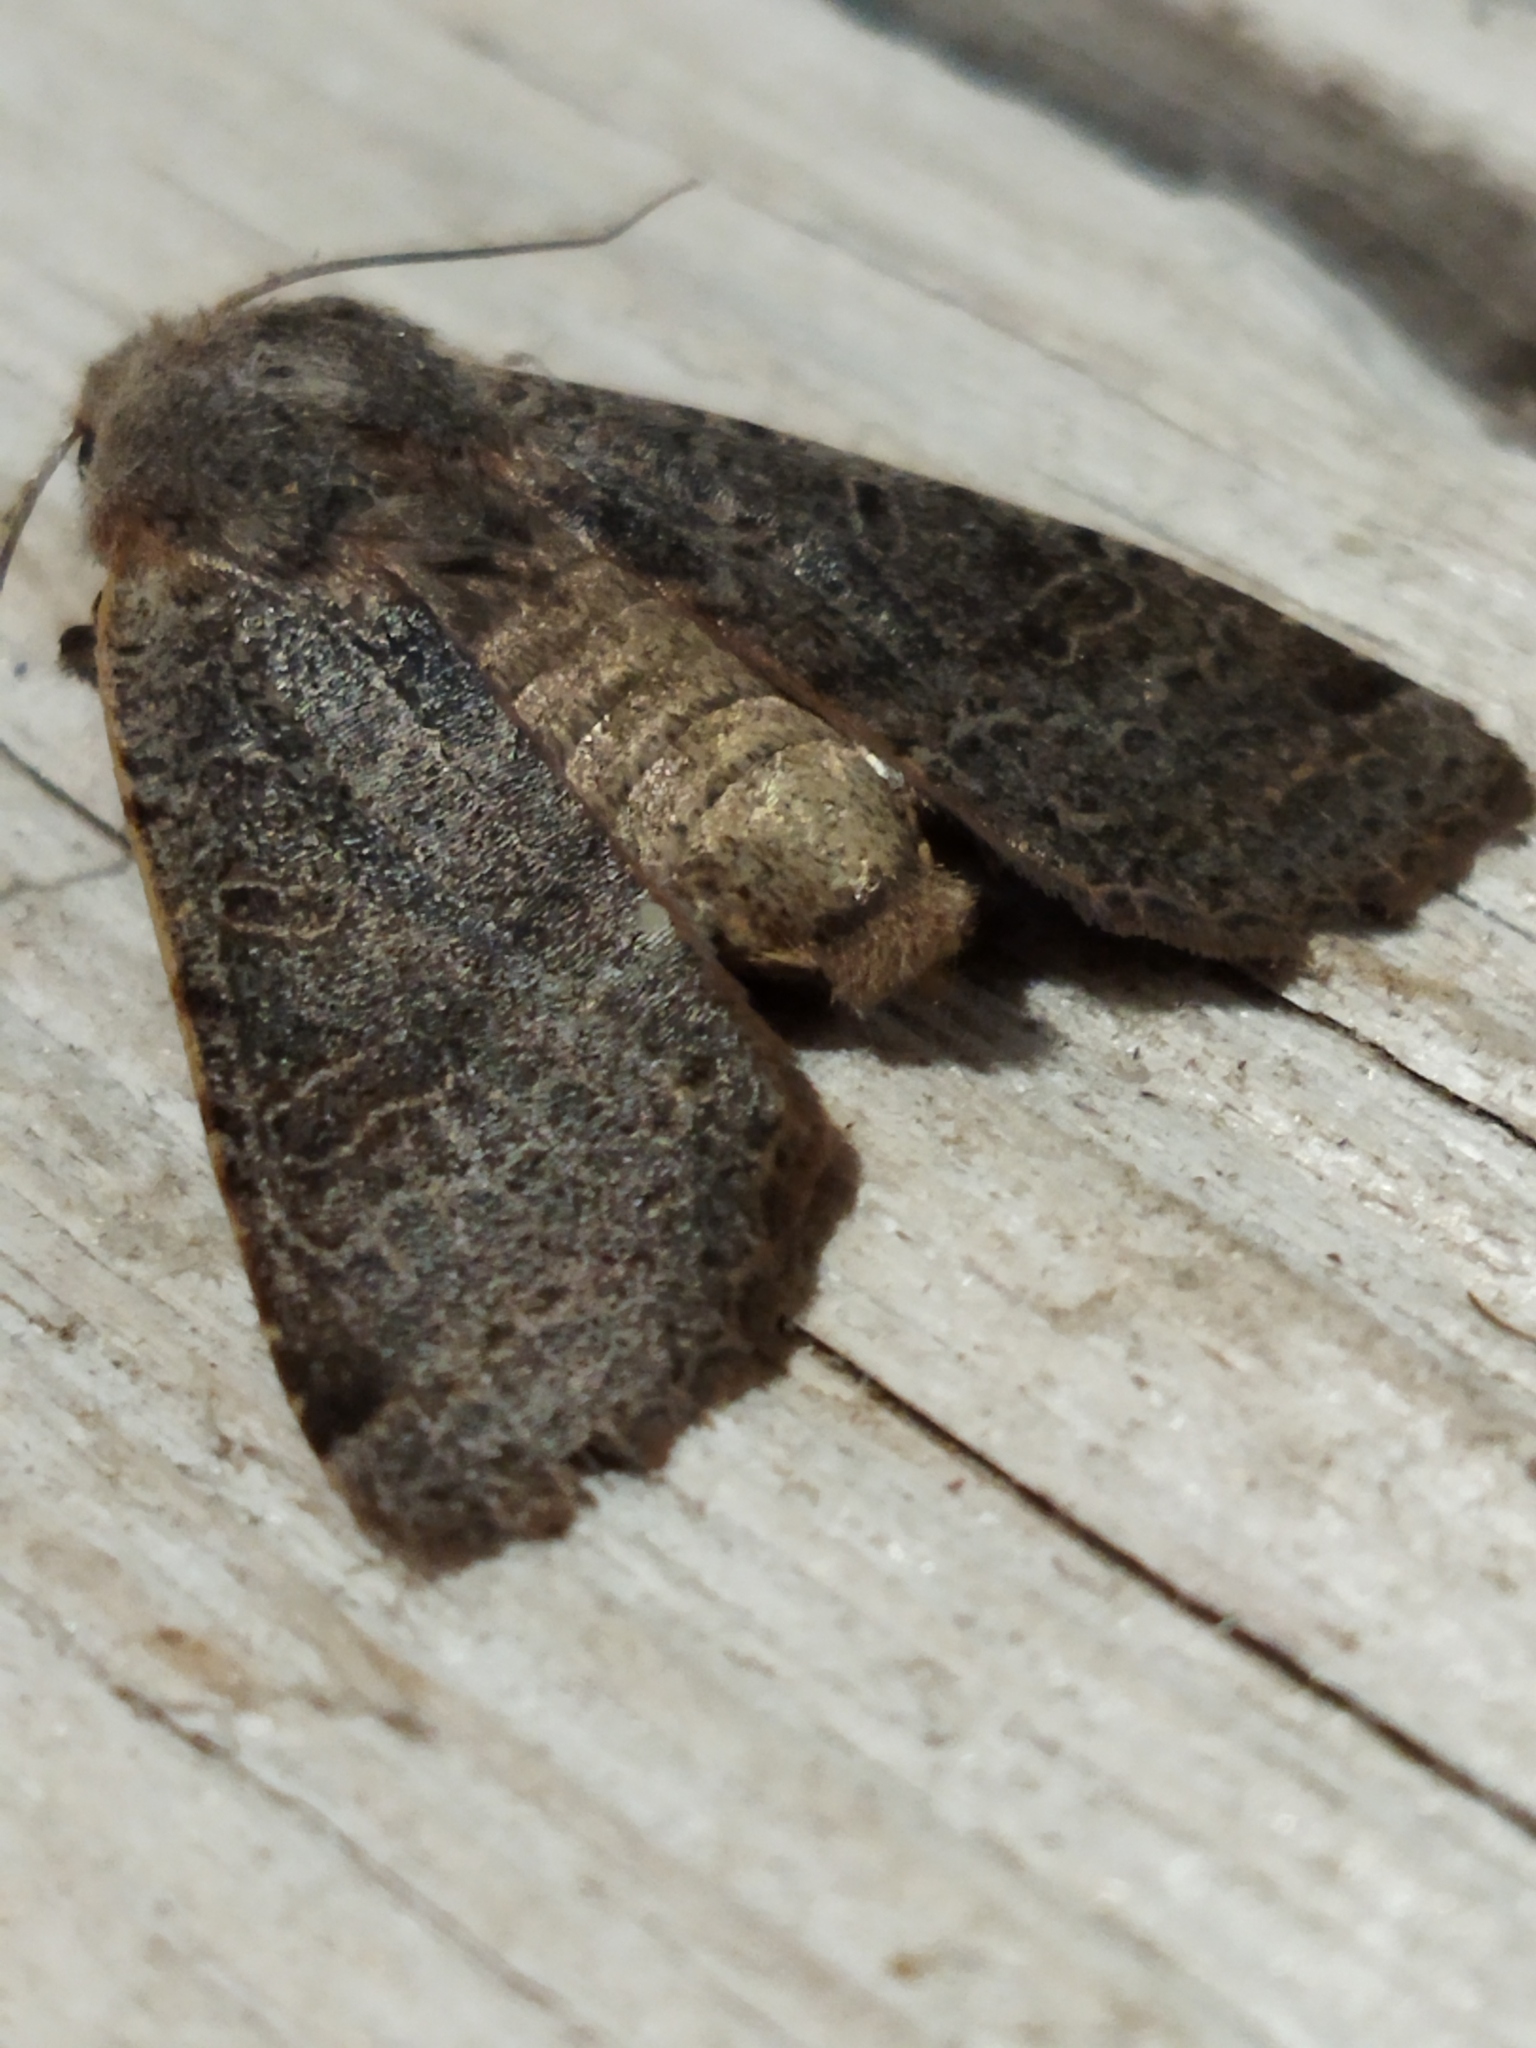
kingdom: Animalia
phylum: Arthropoda
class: Insecta
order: Lepidoptera
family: Noctuidae
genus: Agrochola
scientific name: Agrochola lychnidis
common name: Beaded chestnut
